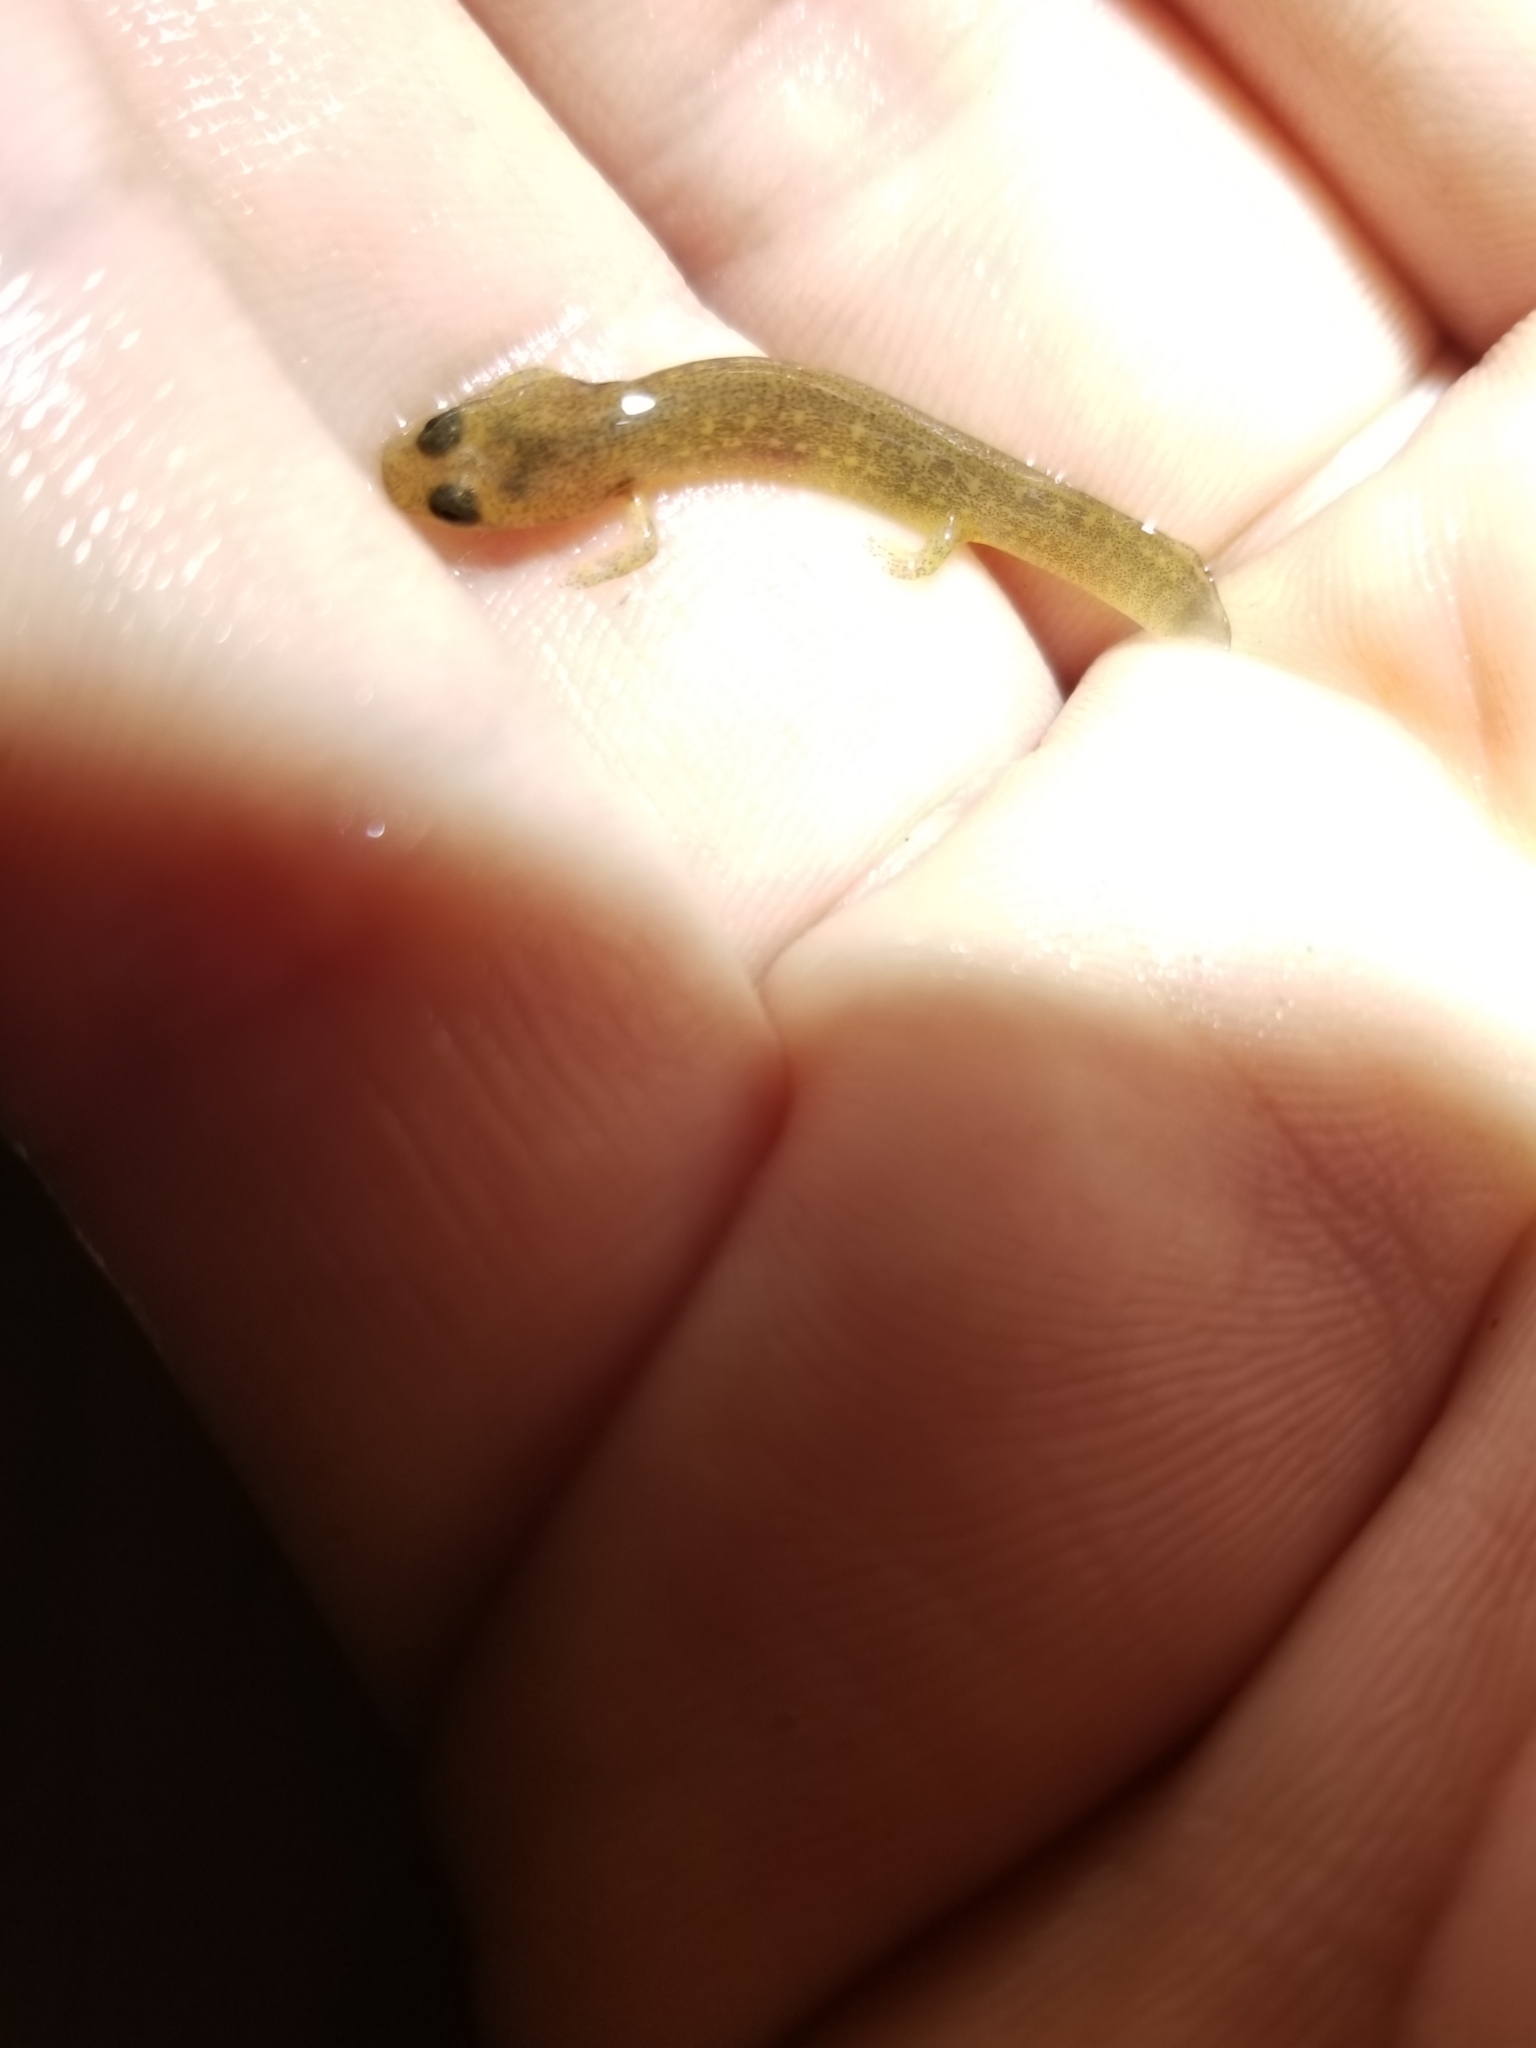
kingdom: Animalia
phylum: Chordata
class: Amphibia
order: Caudata
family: Plethodontidae
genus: Eurycea
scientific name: Eurycea bislineata
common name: Northern two-lined salamander
